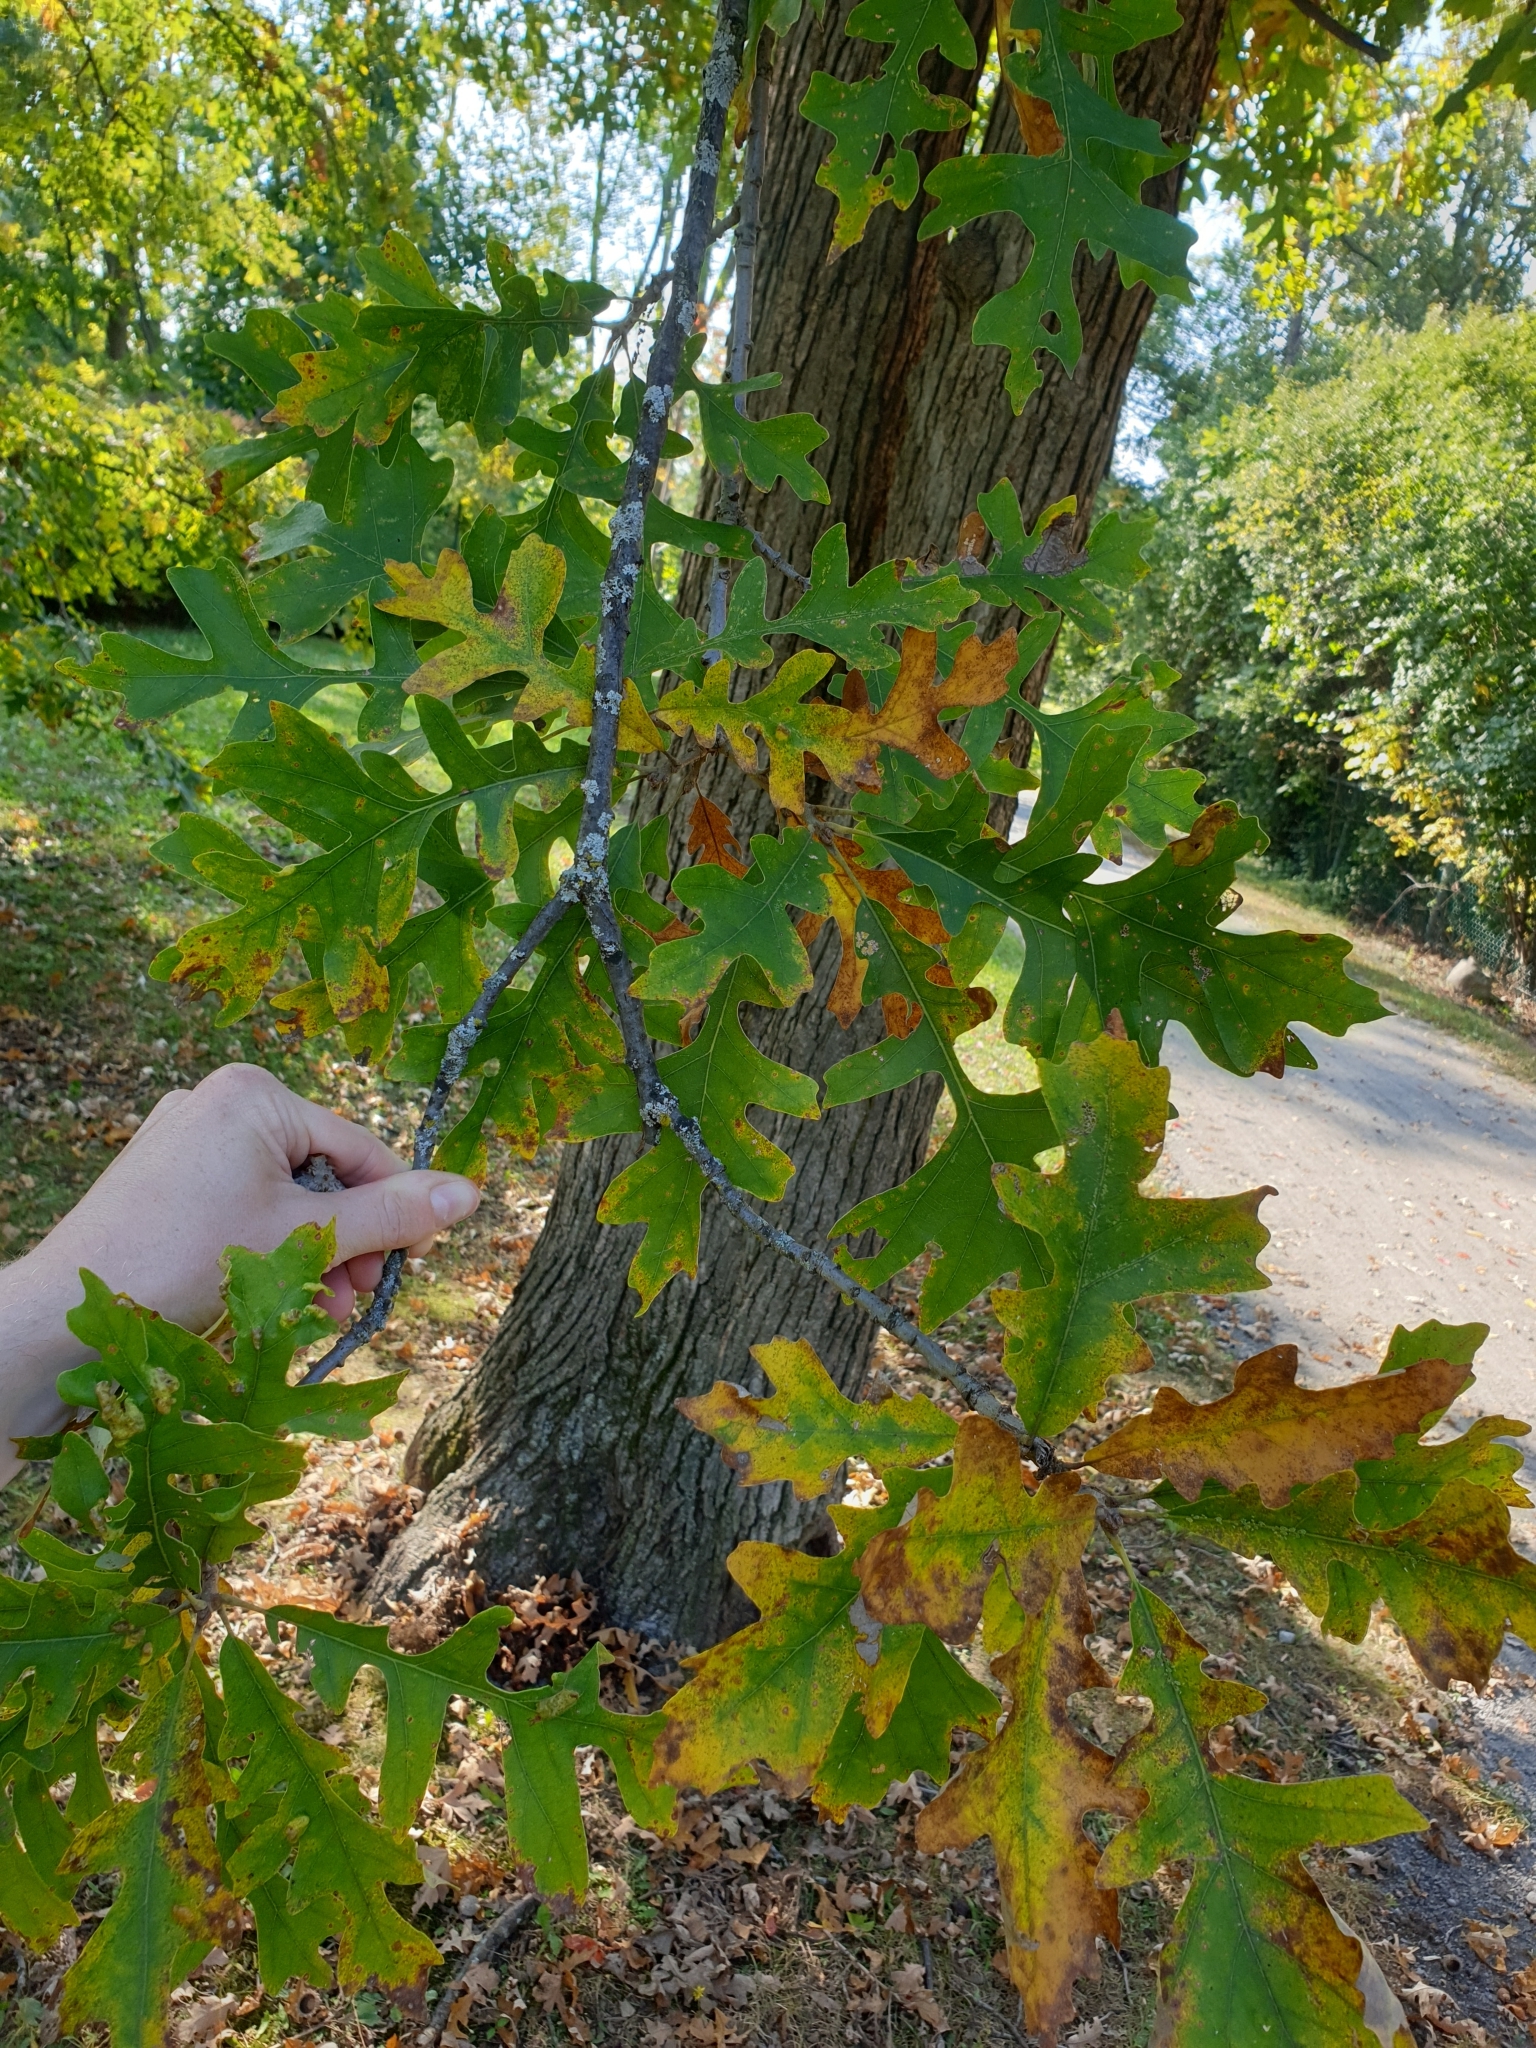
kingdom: Plantae
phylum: Tracheophyta
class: Magnoliopsida
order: Fagales
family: Fagaceae
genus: Quercus
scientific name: Quercus macrocarpa
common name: Bur oak
